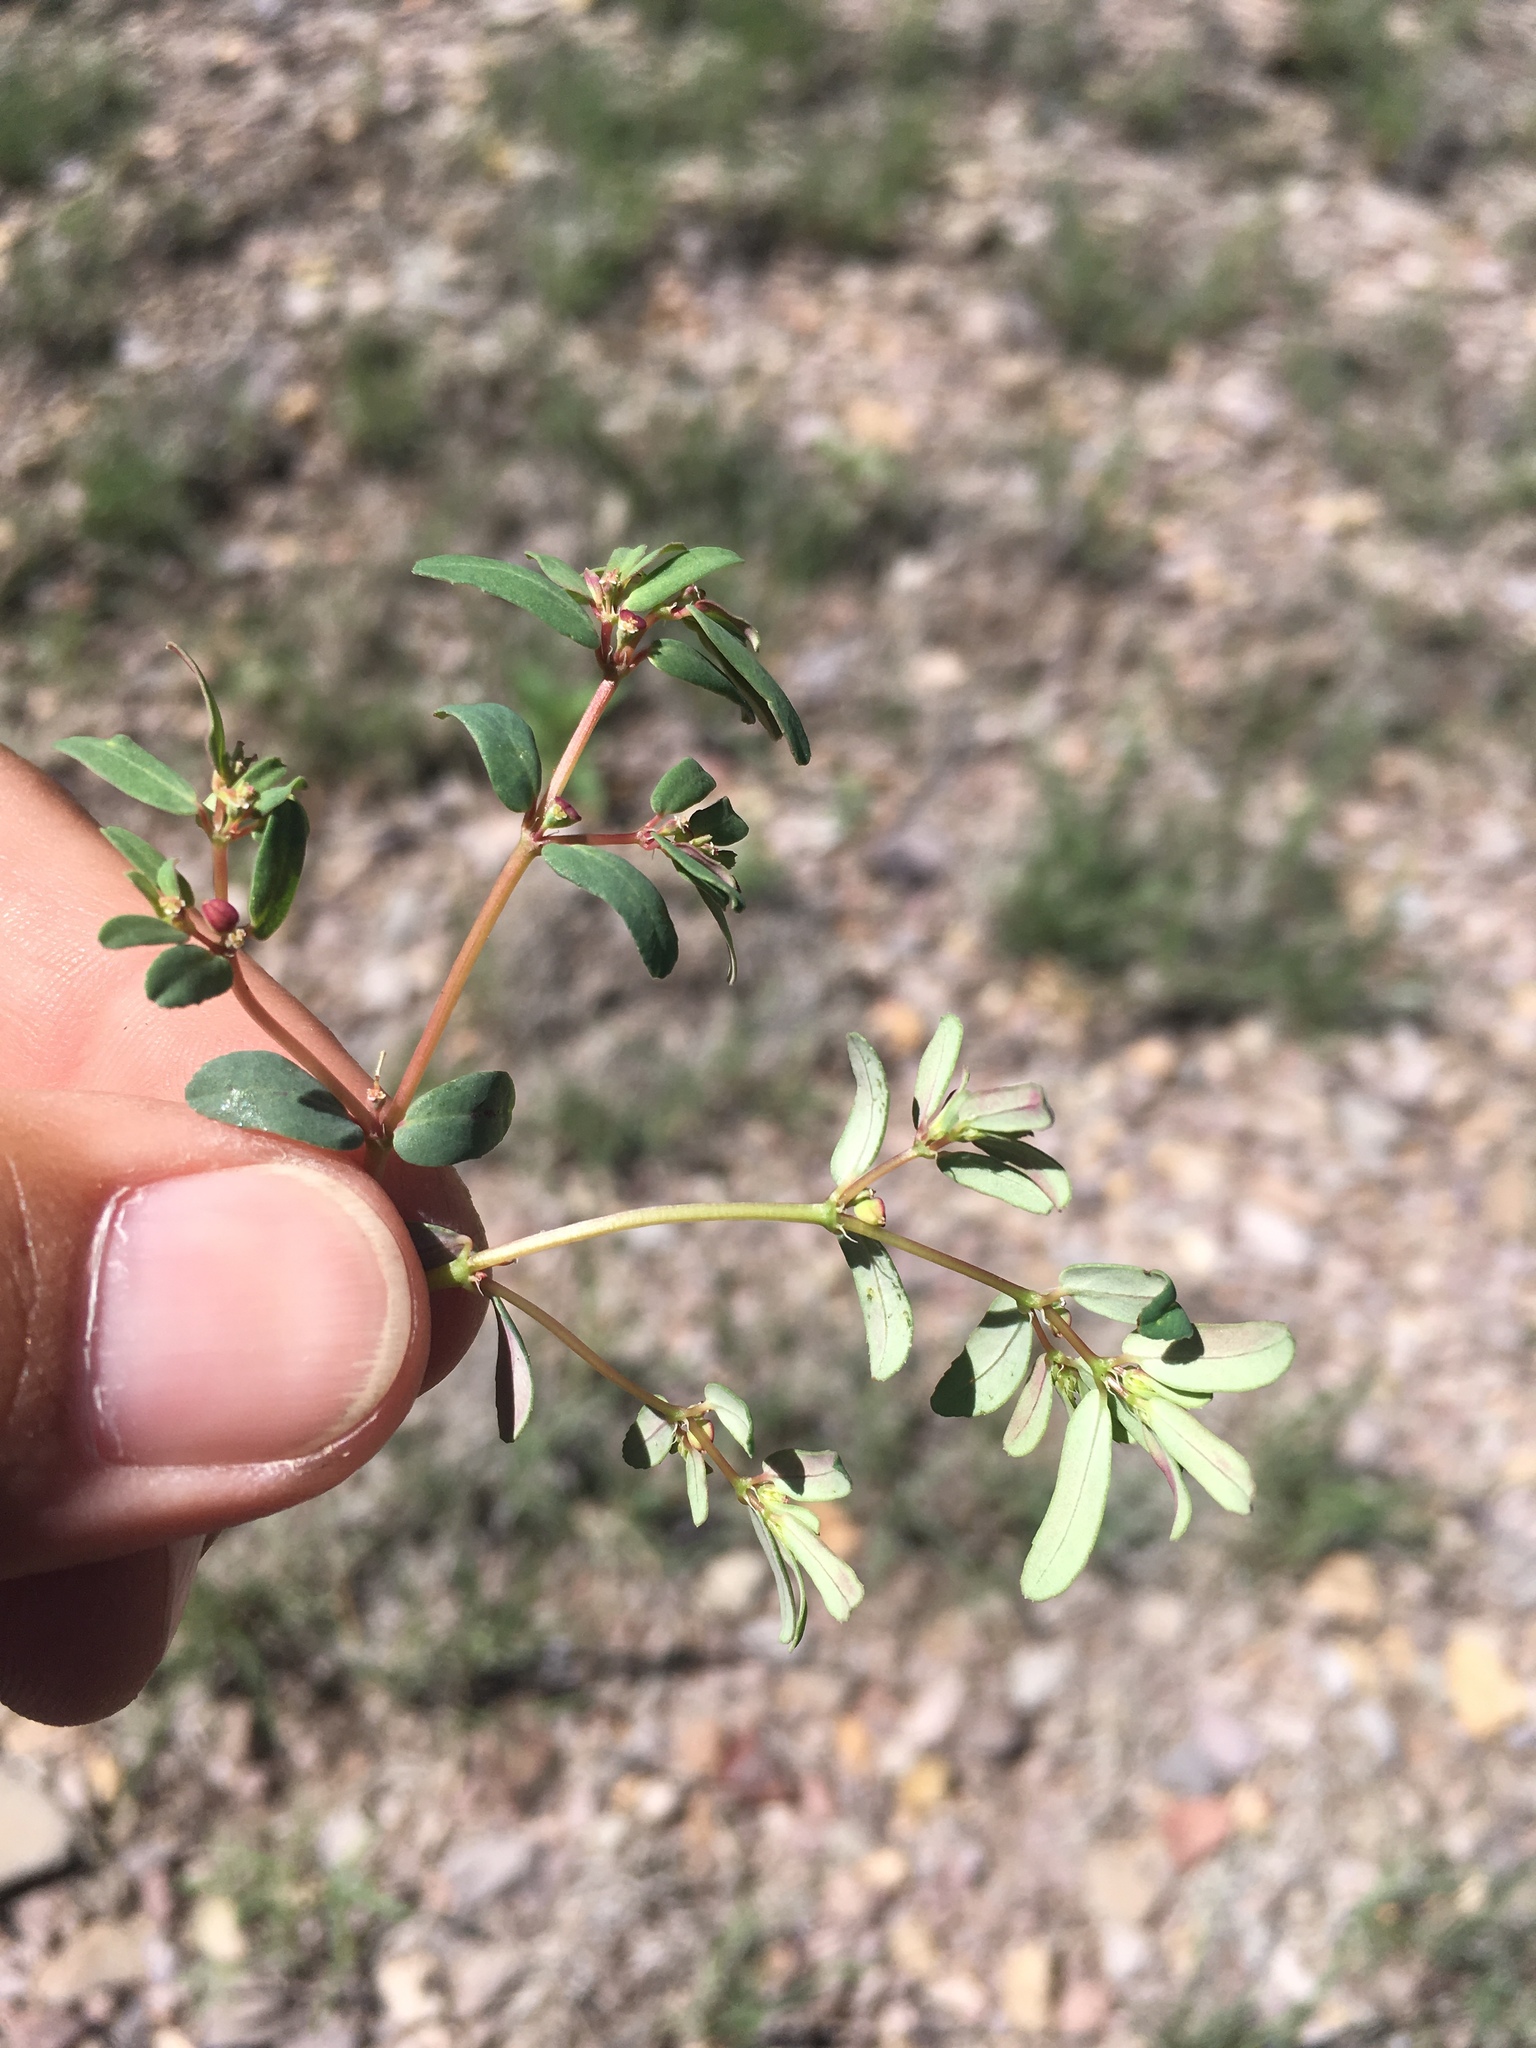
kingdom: Plantae
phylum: Tracheophyta
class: Magnoliopsida
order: Malpighiales
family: Euphorbiaceae
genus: Euphorbia
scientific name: Euphorbia serpillifolia
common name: Thyme-leaf spurge
